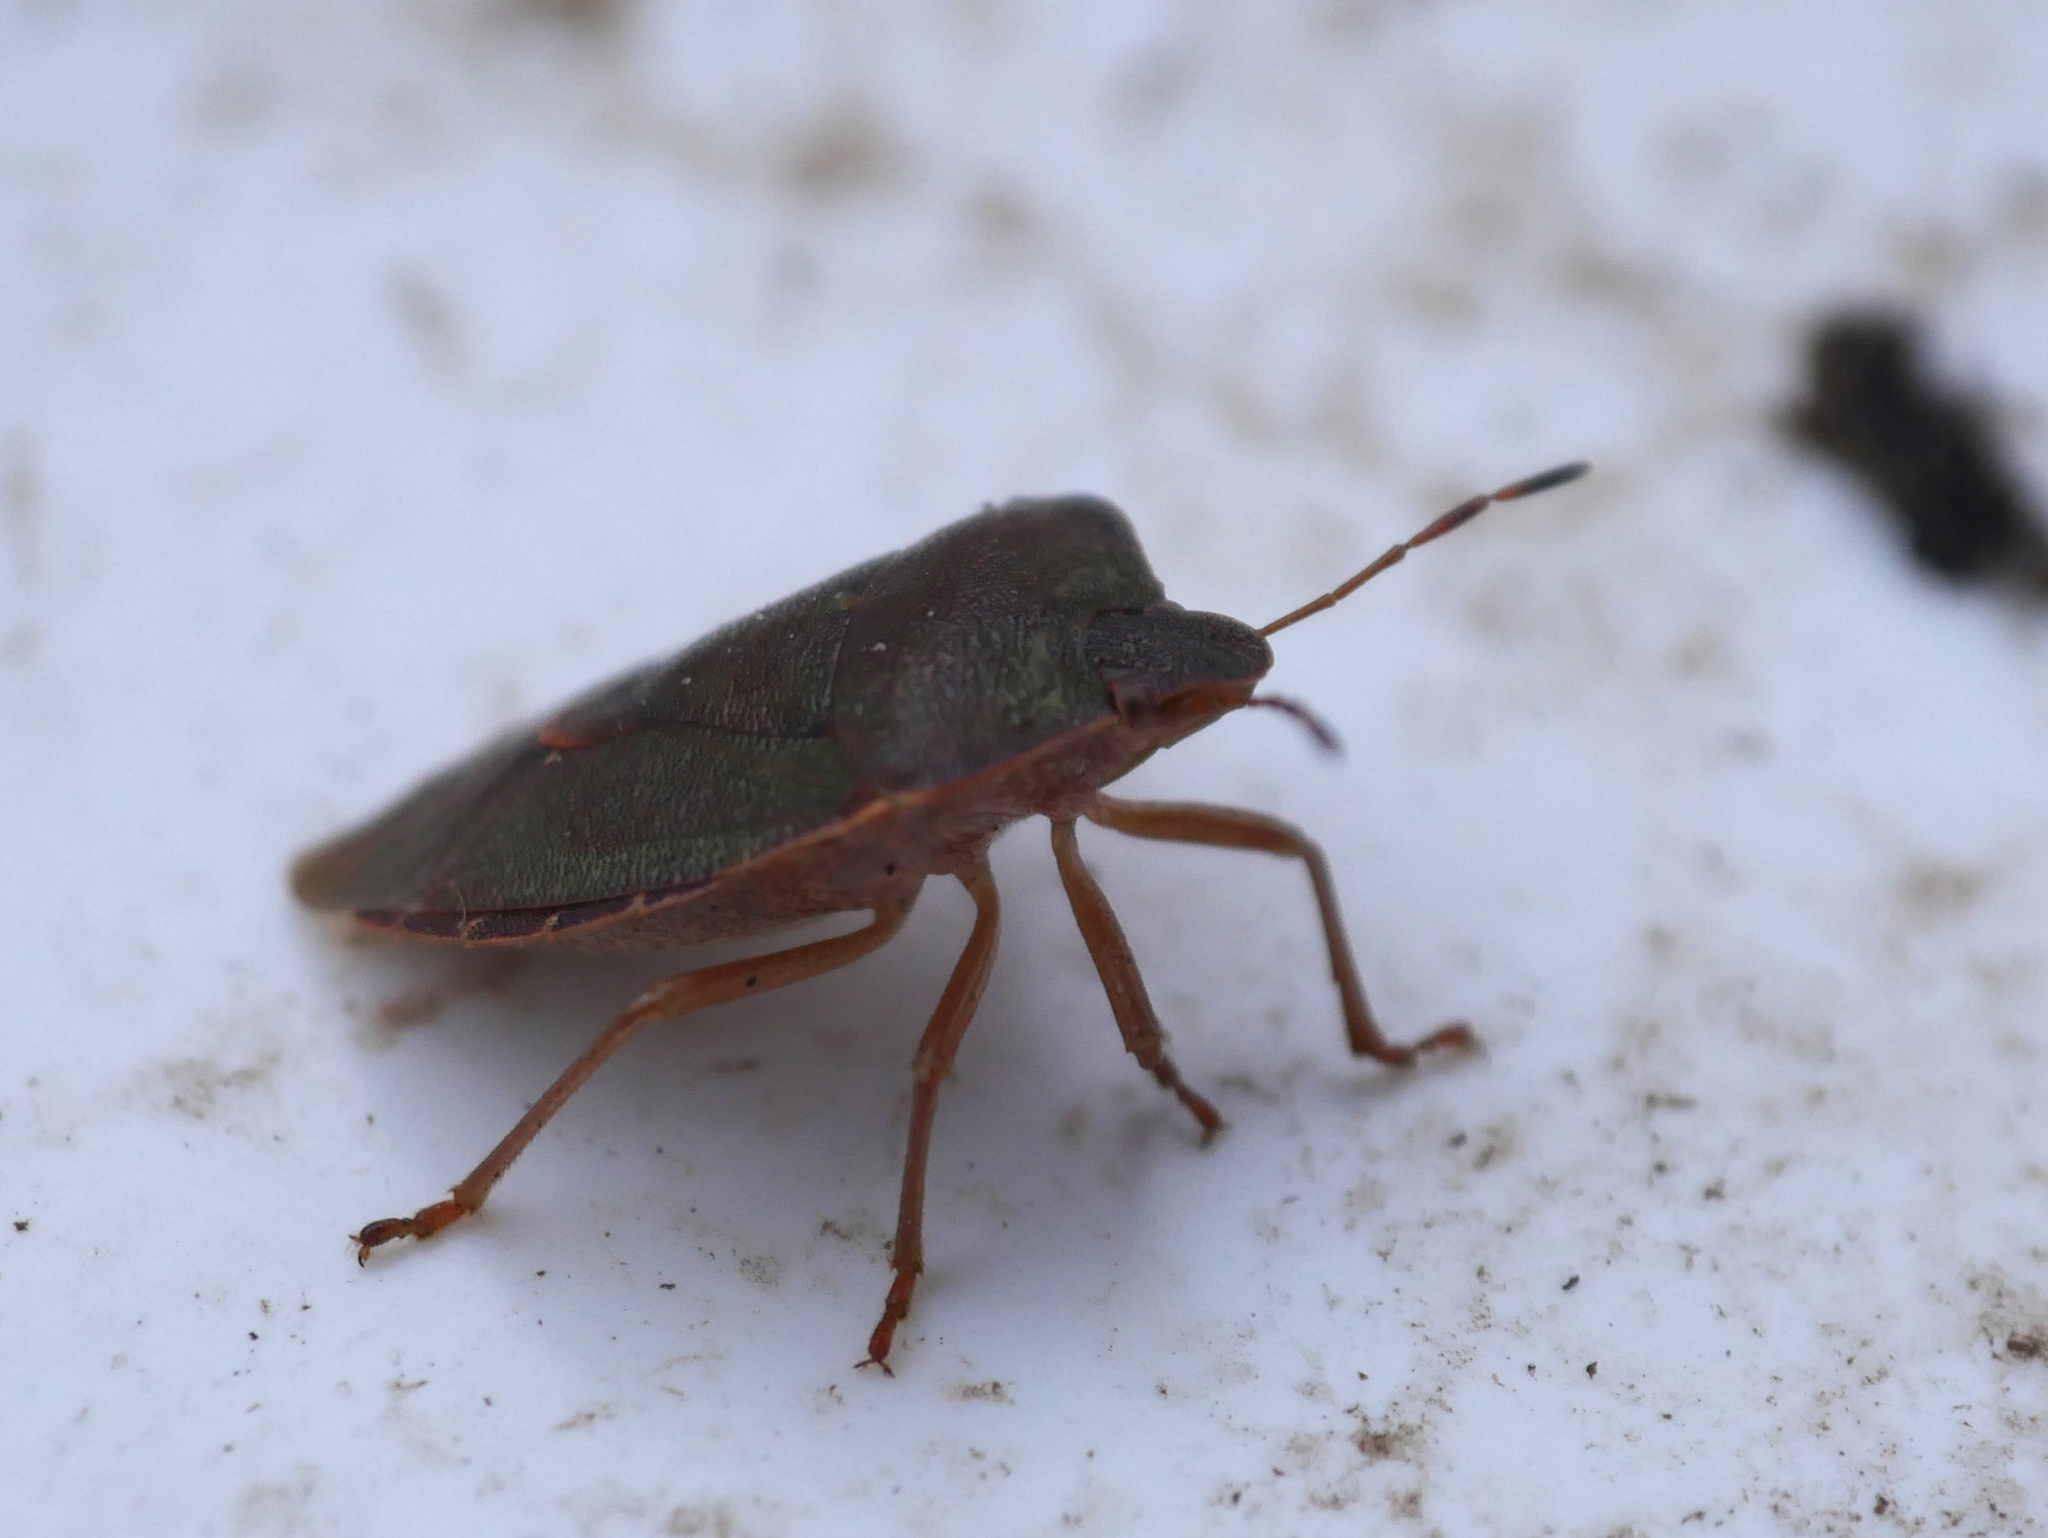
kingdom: Animalia
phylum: Arthropoda
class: Insecta
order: Hemiptera
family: Pentatomidae
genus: Palomena
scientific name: Palomena prasina
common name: Green shieldbug
